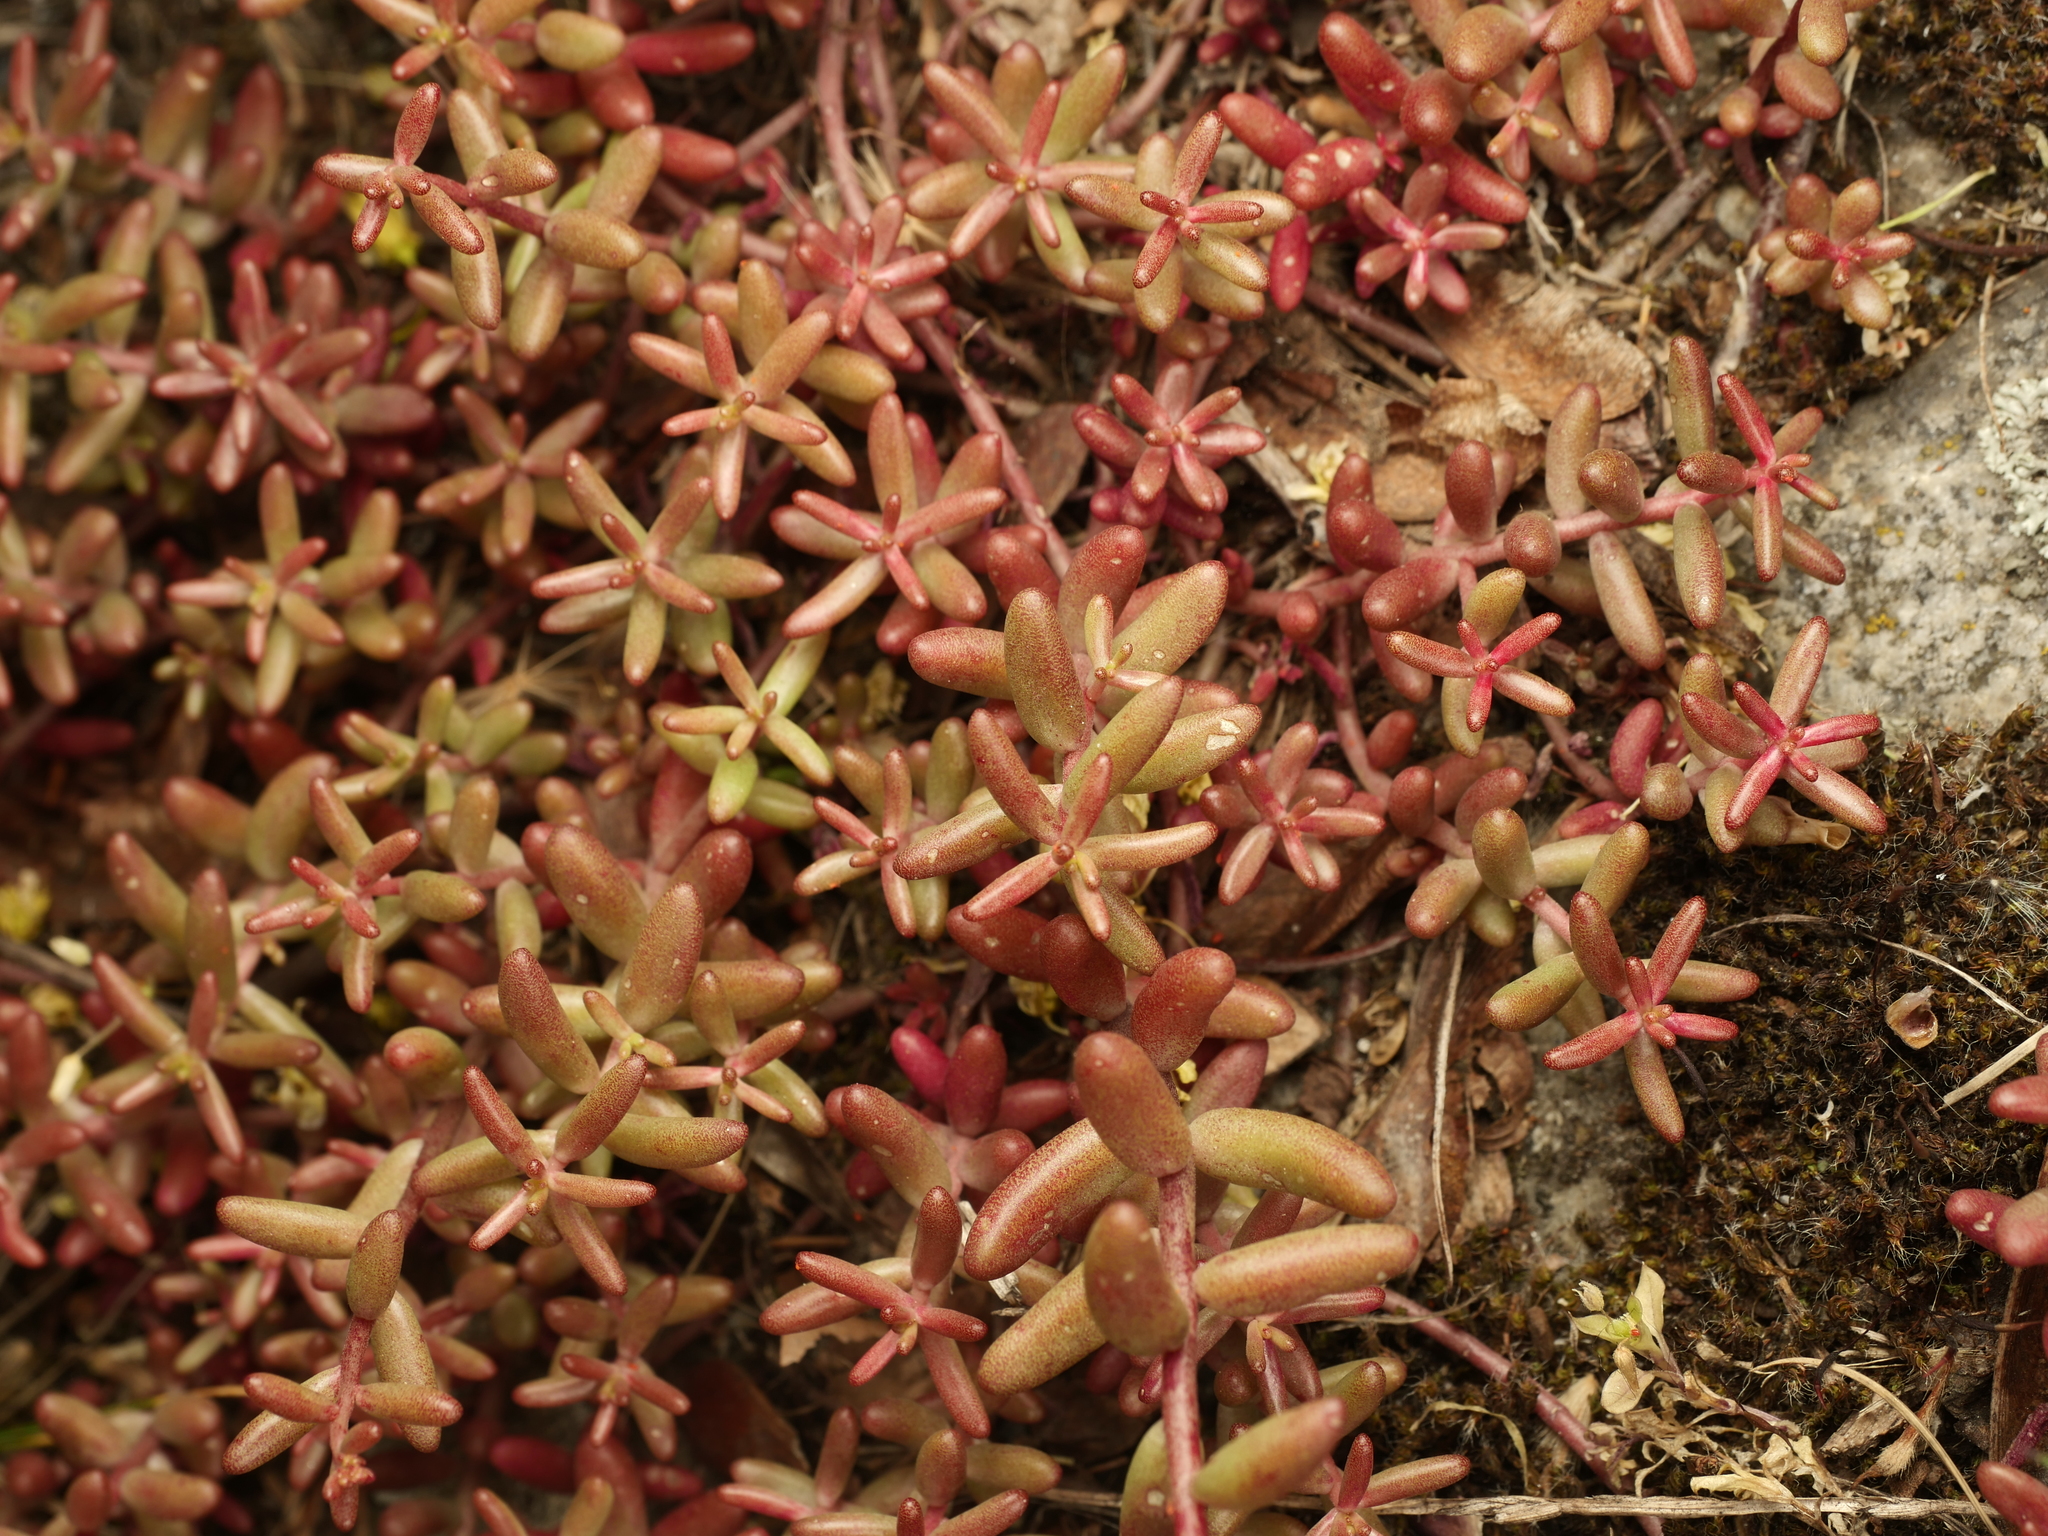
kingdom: Plantae
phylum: Tracheophyta
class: Magnoliopsida
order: Saxifragales
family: Crassulaceae
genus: Sedum
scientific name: Sedum album
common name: White stonecrop
